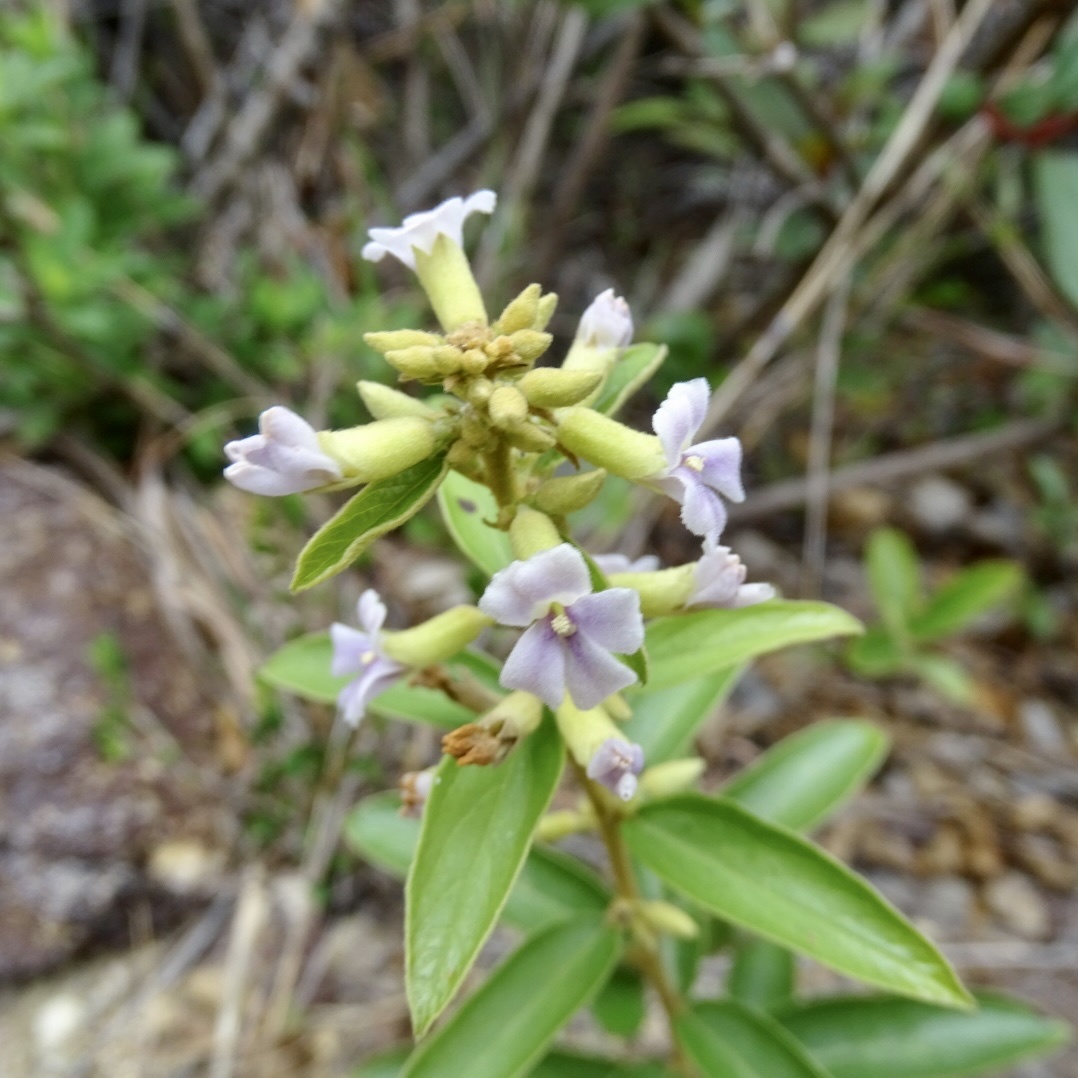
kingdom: Plantae
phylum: Tracheophyta
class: Magnoliopsida
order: Malvales
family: Malvaceae
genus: Helicteres
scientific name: Helicteres angustifolia
